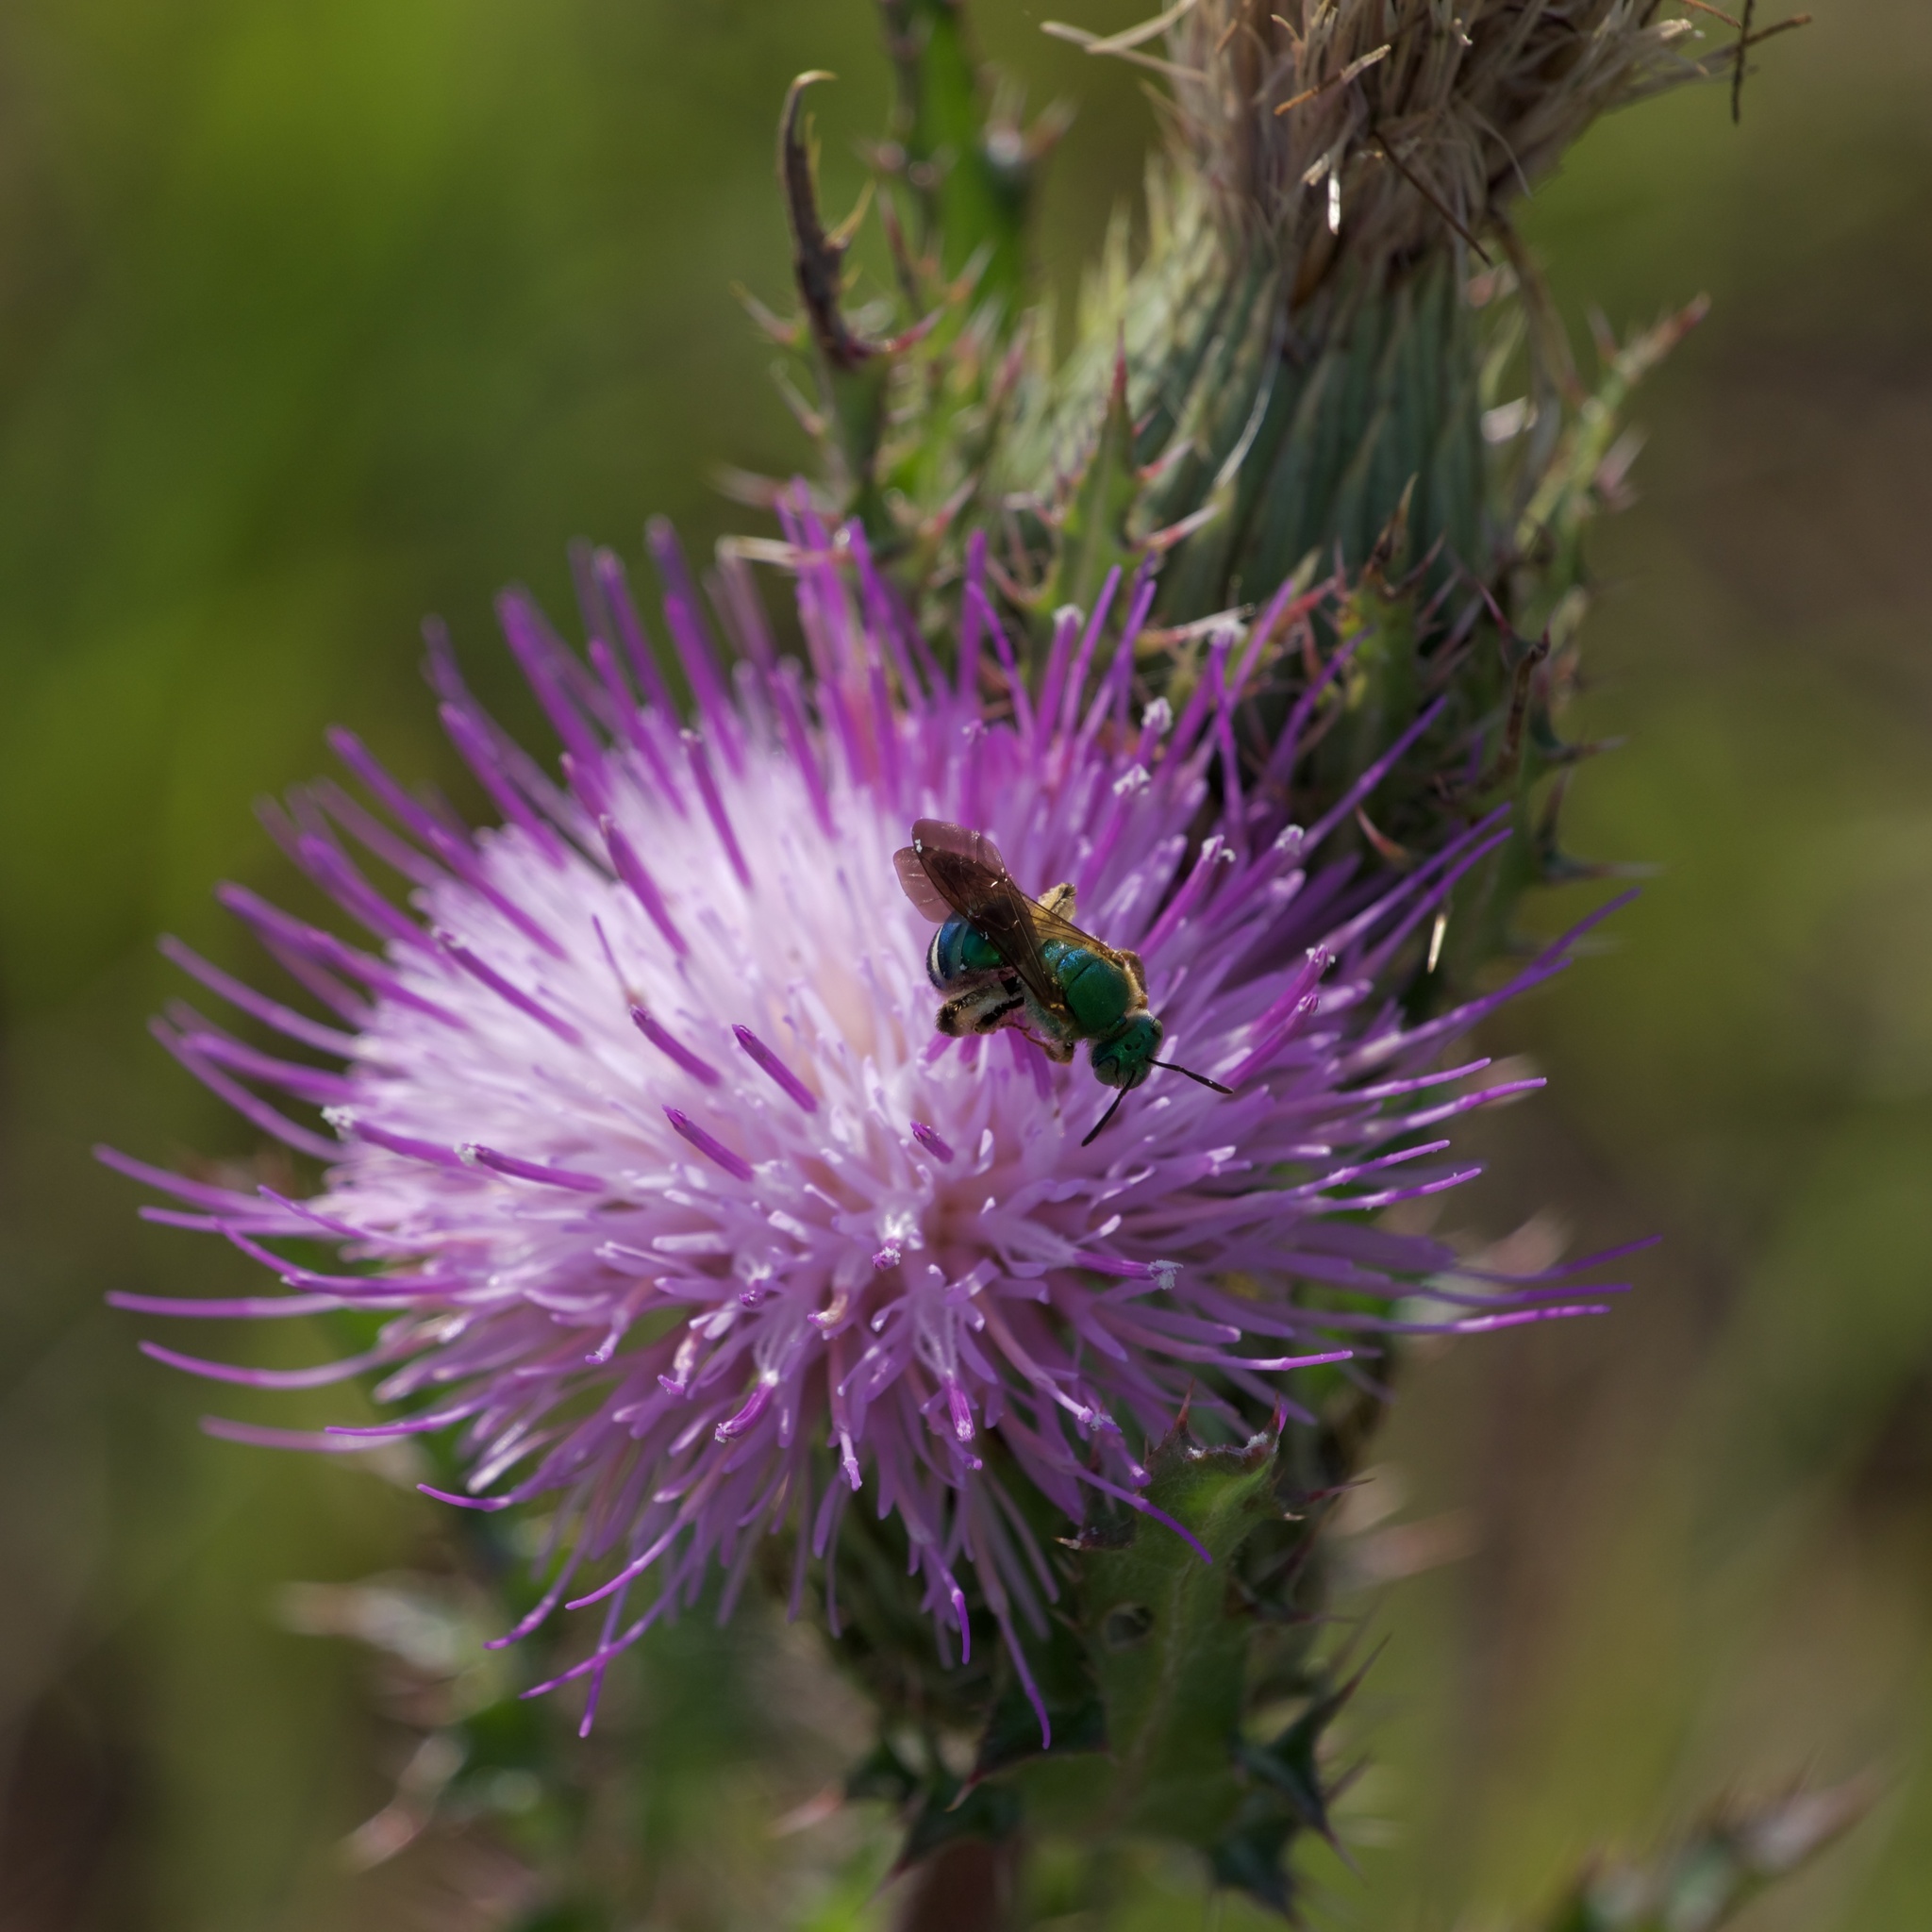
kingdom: Plantae
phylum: Tracheophyta
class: Magnoliopsida
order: Asterales
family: Asteraceae
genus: Cirsium
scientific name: Cirsium horridulum
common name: Bristly thistle
